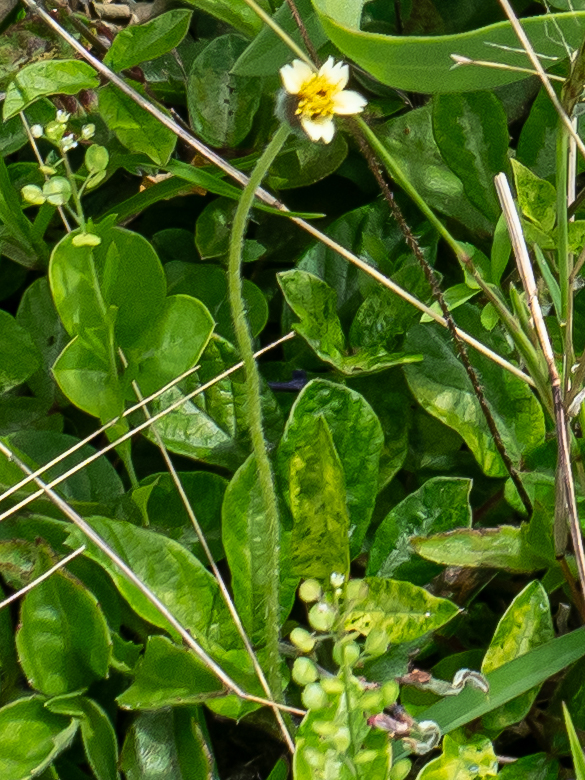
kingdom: Plantae
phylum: Tracheophyta
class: Magnoliopsida
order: Asterales
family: Asteraceae
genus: Tridax
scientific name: Tridax procumbens
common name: Coatbuttons
